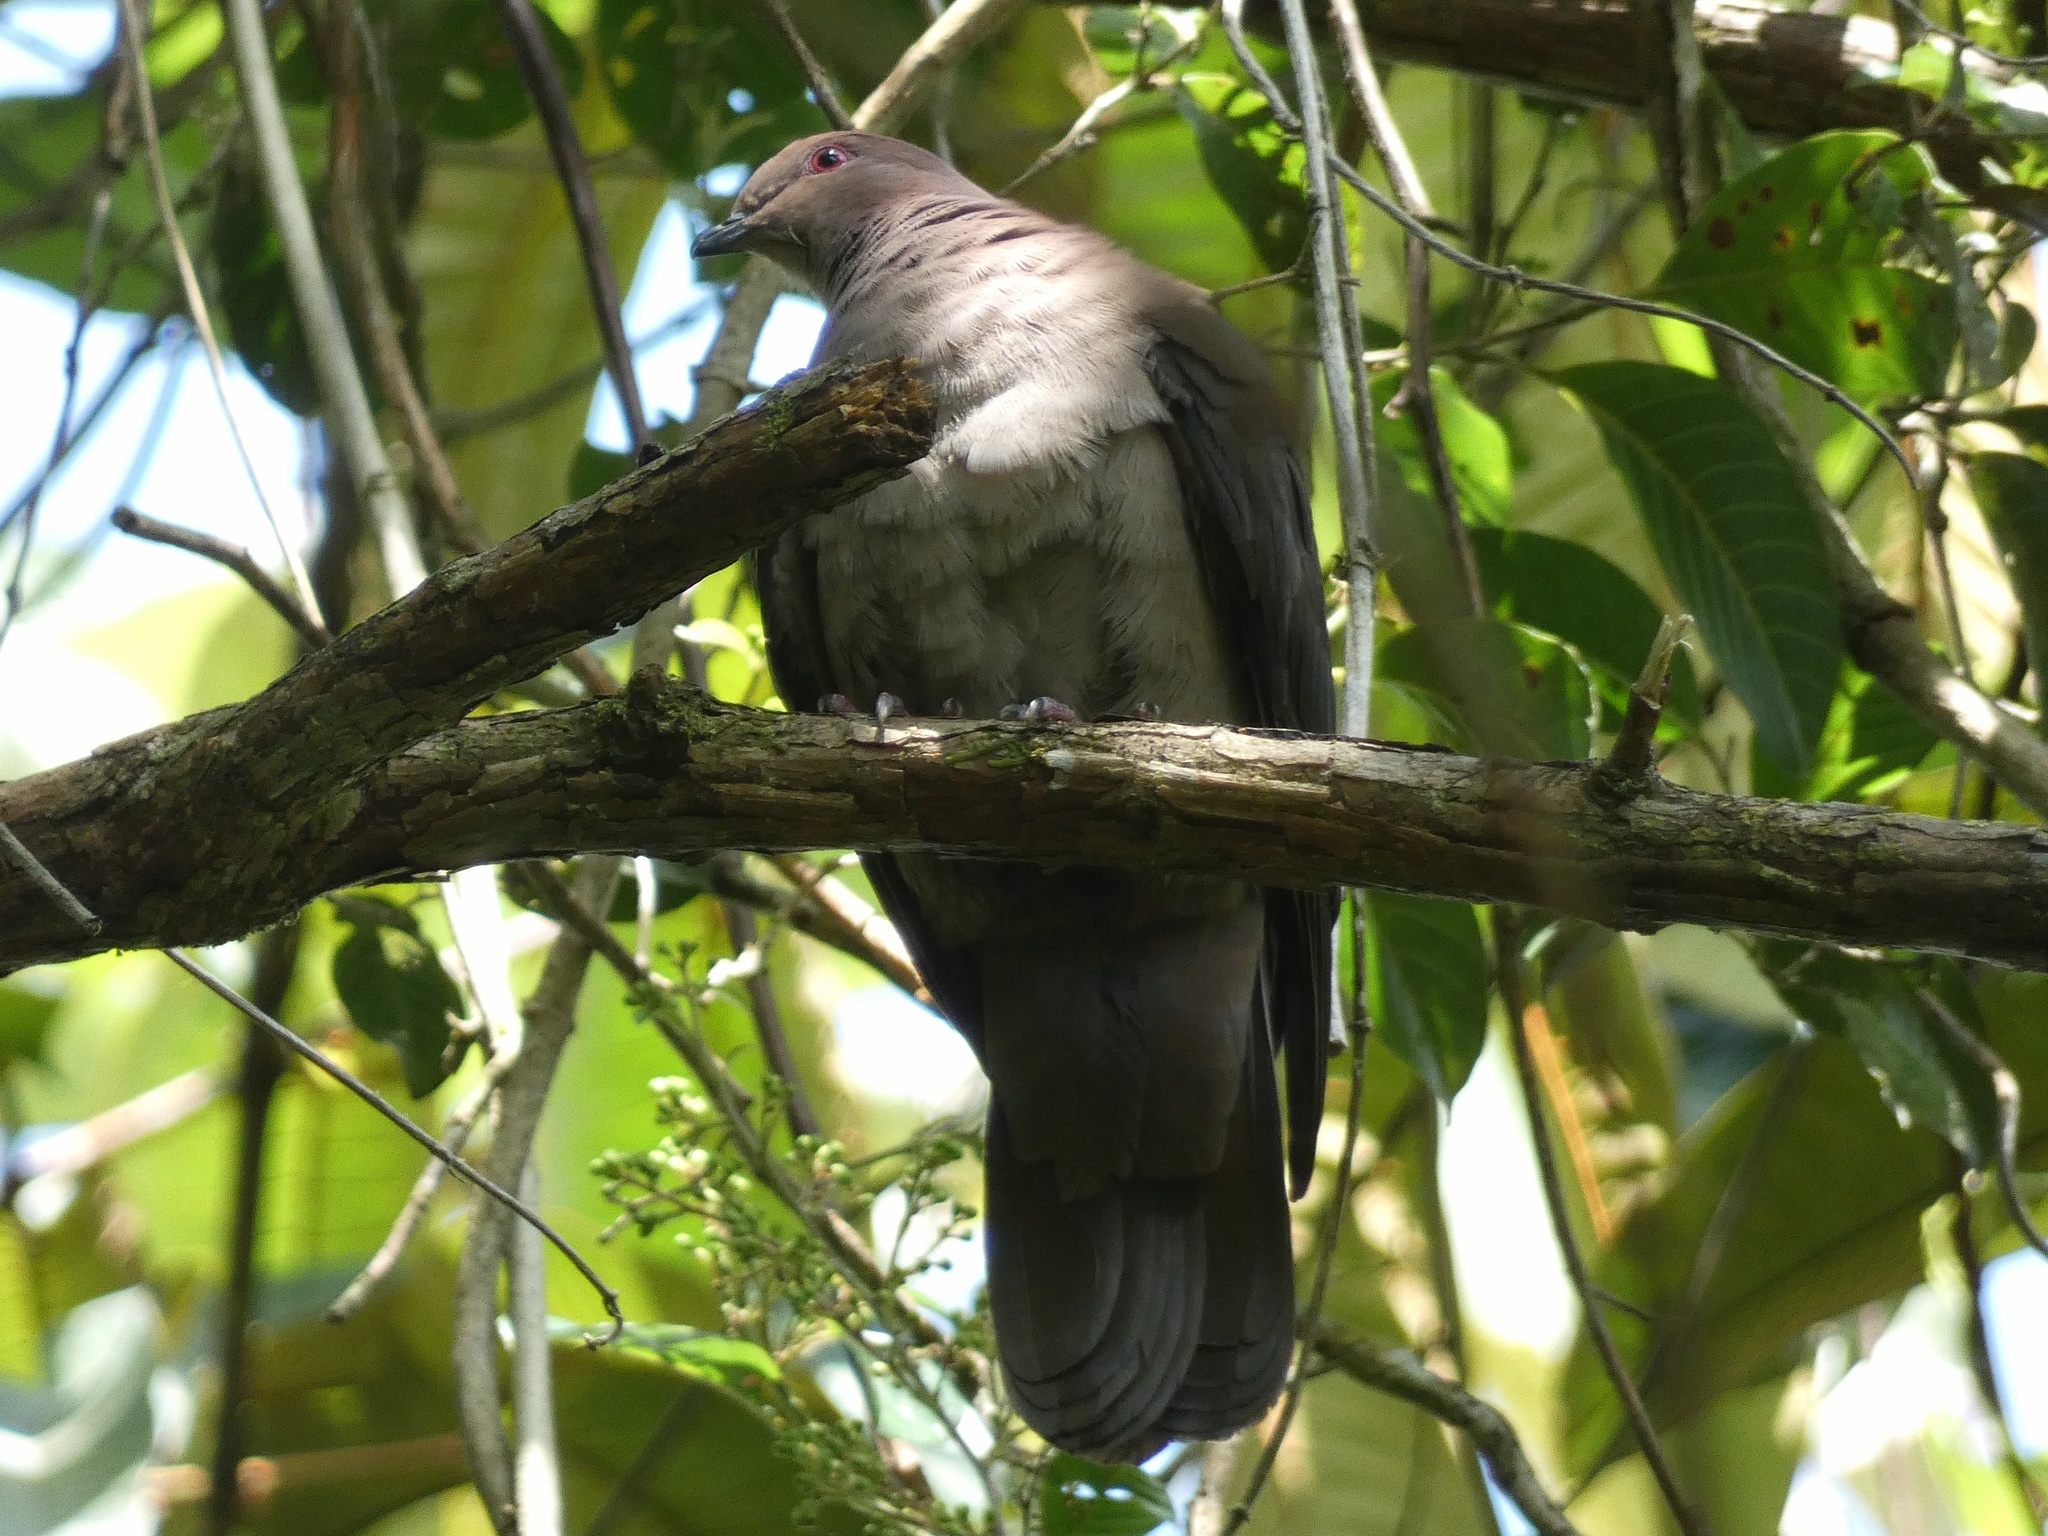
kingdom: Animalia
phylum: Chordata
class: Aves
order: Columbiformes
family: Columbidae
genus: Patagioenas
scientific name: Patagioenas nigrirostris
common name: Short-billed pigeon
